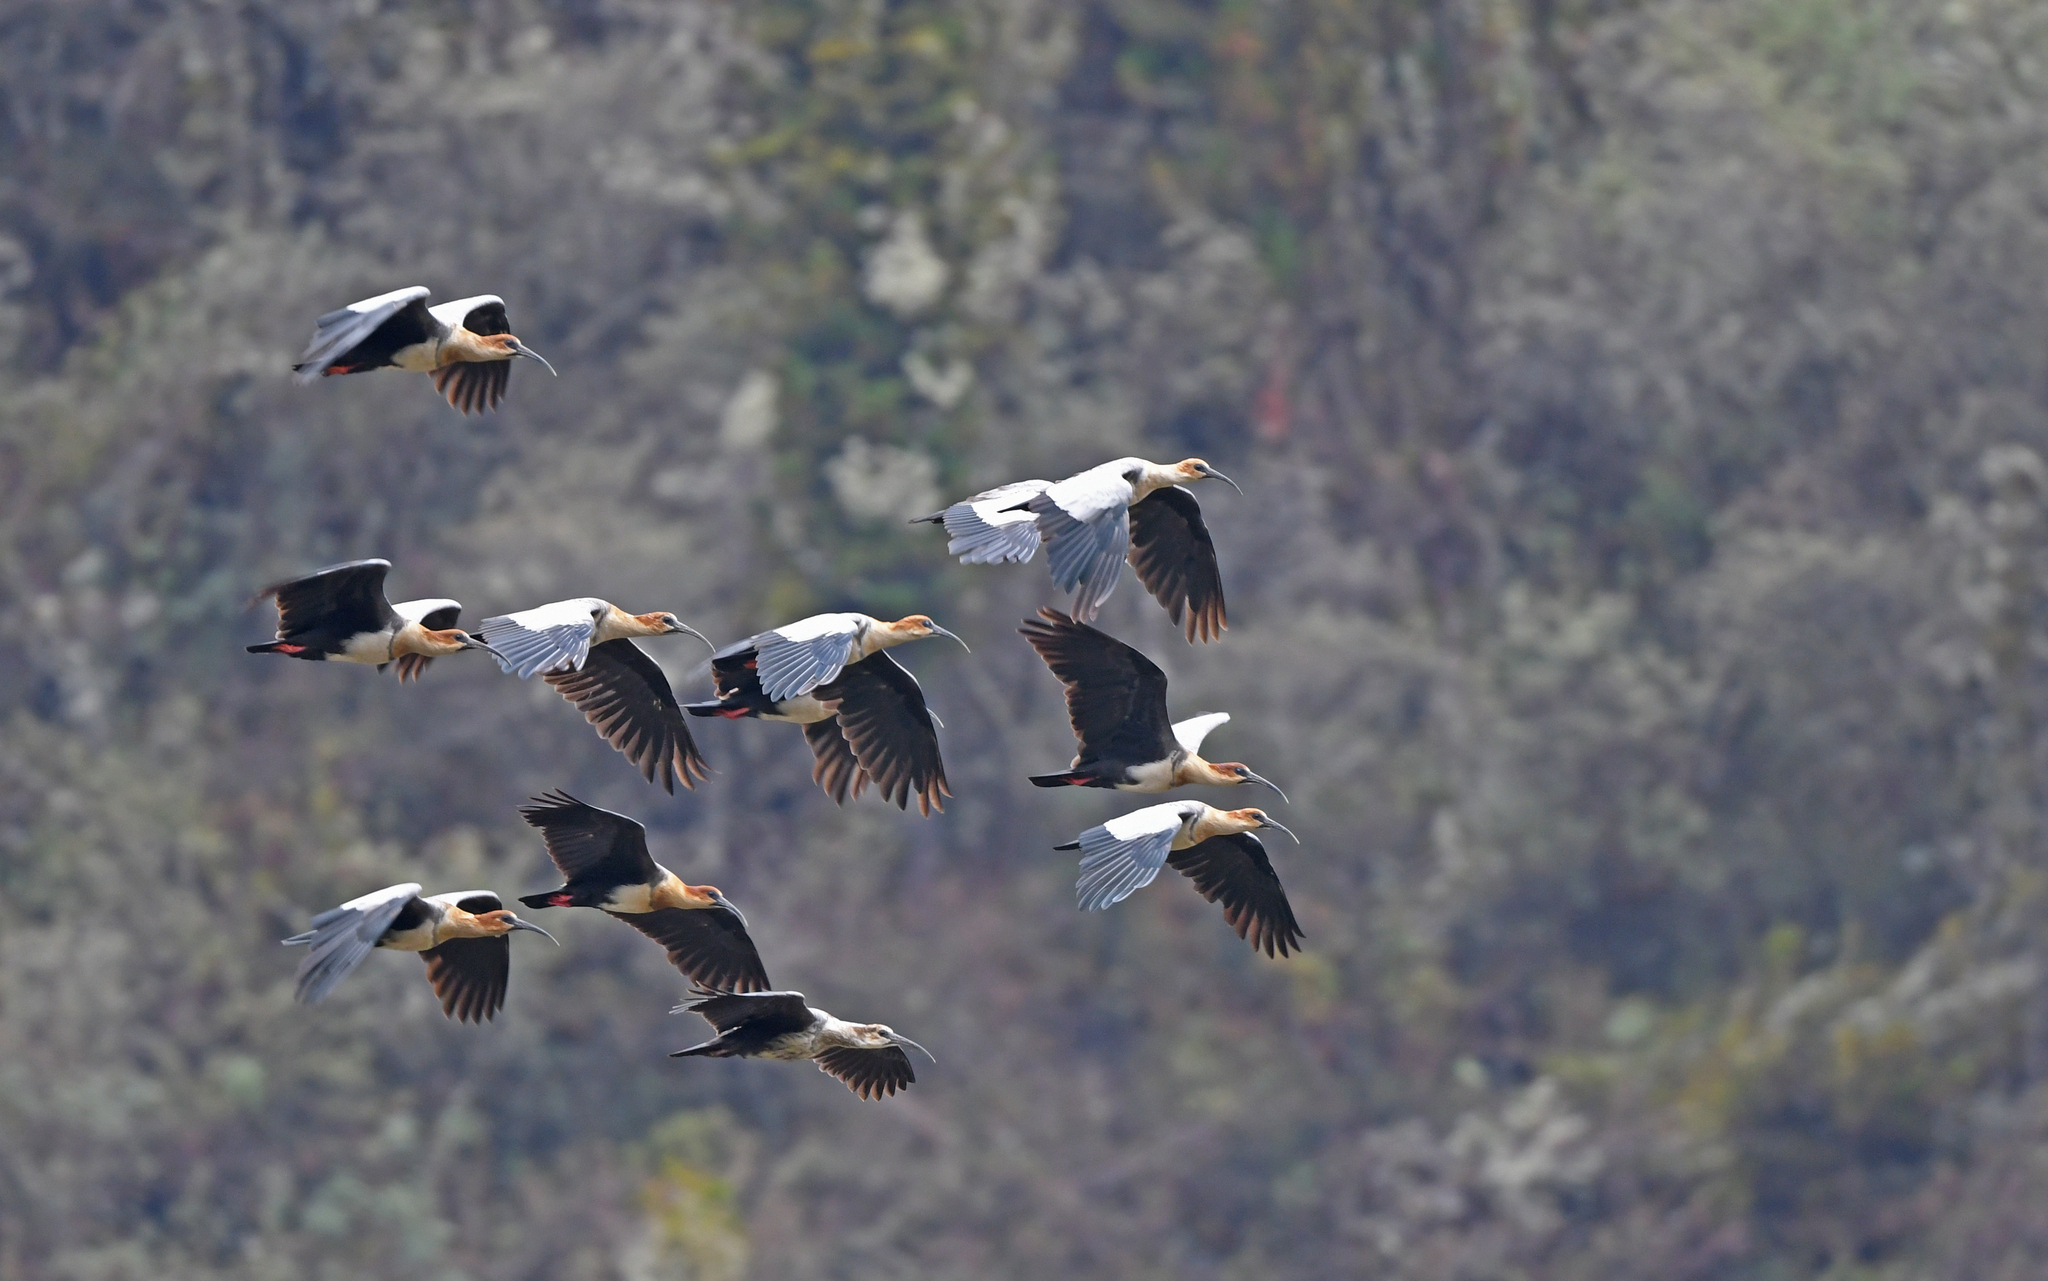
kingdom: Animalia
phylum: Chordata
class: Aves
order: Pelecaniformes
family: Threskiornithidae
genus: Theristicus
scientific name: Theristicus melanopis
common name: Black-faced ibis
